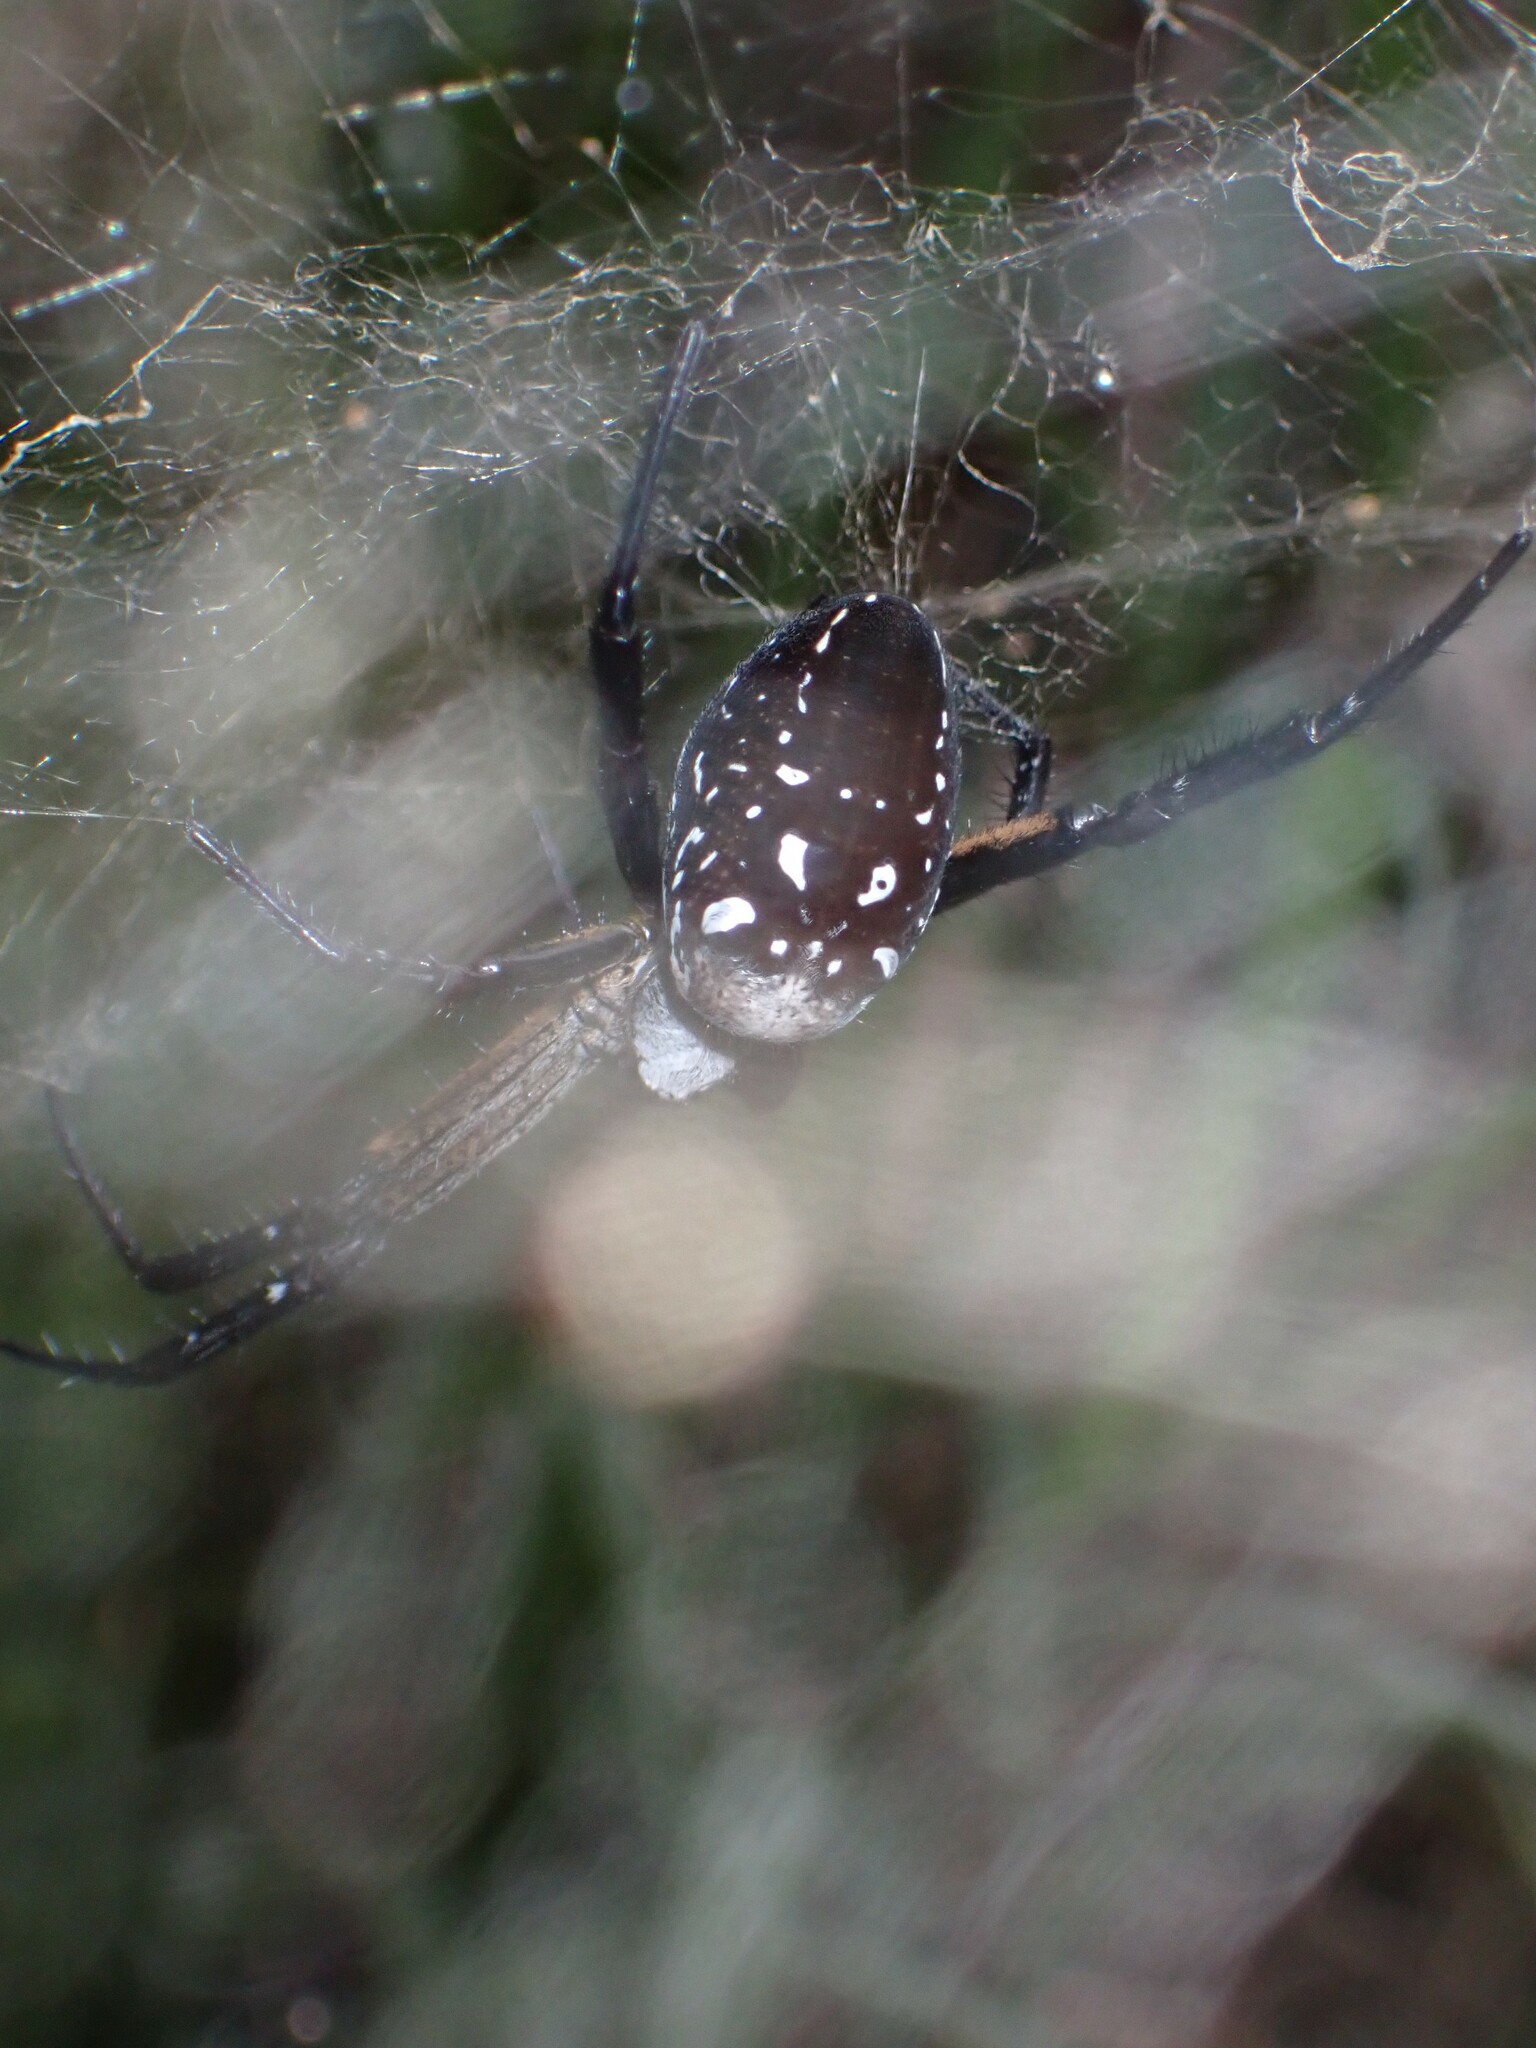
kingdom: Chromista
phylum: Ochrophyta
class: Dictyochophyceae
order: Pedinellales
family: Cyrtophoraceae
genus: Cyrtophora
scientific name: Cyrtophora moluccensis
